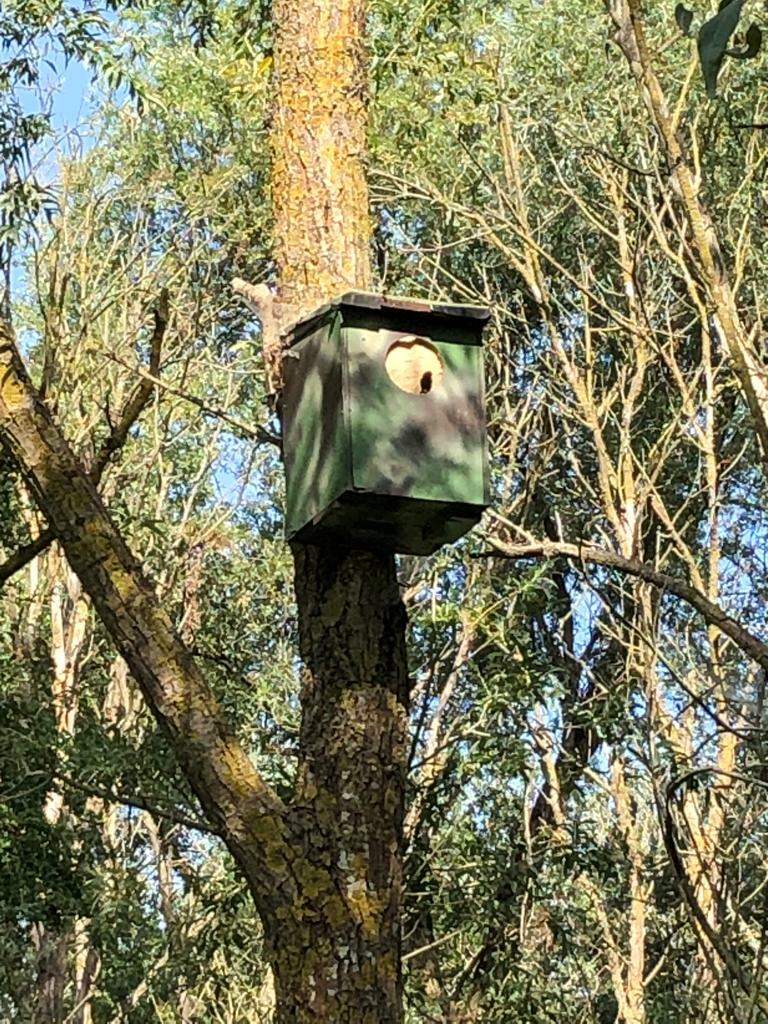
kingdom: Animalia
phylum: Arthropoda
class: Insecta
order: Hymenoptera
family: Vespidae
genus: Vespa
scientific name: Vespa crabro
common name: Hornet
